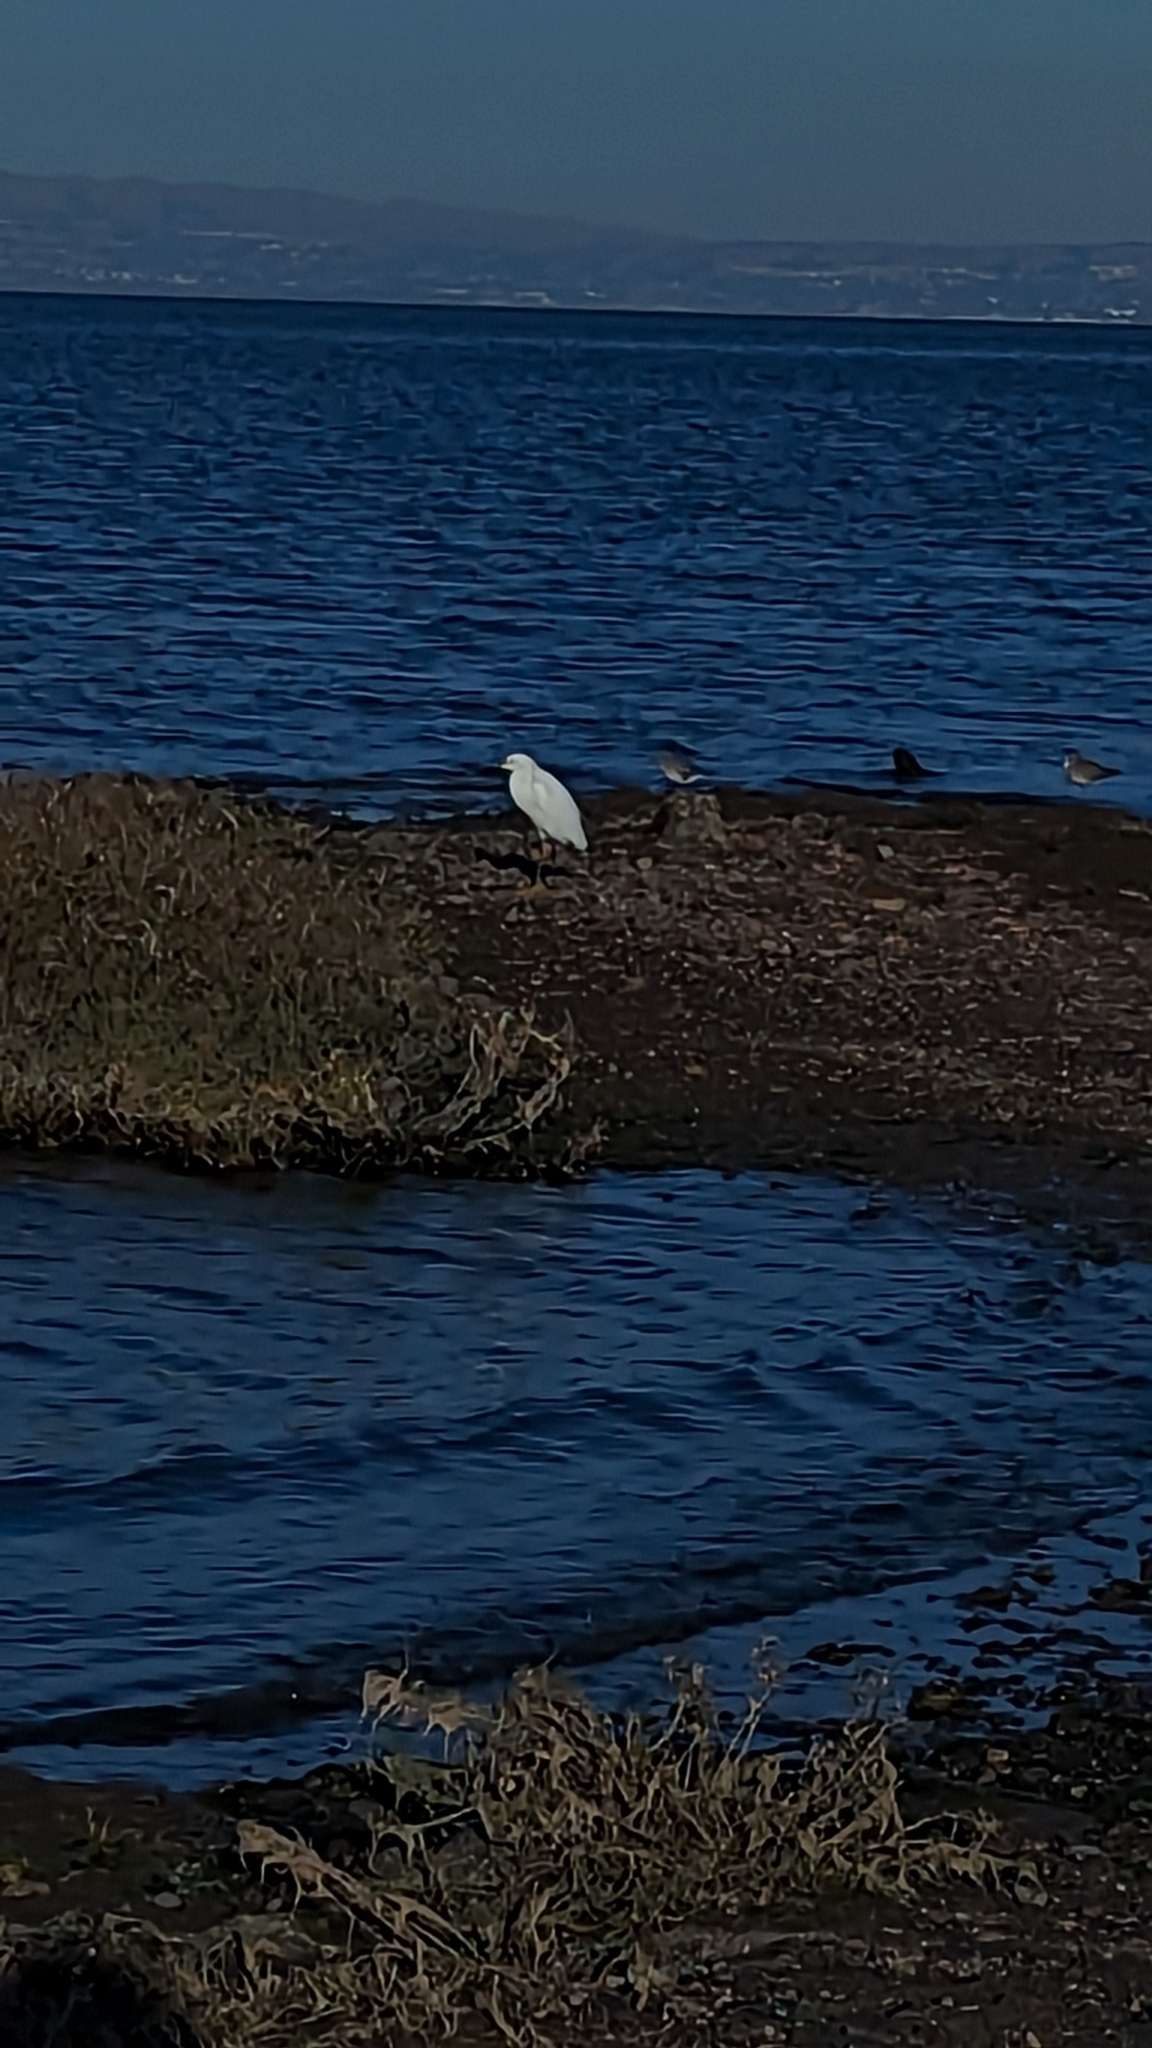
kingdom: Animalia
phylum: Chordata
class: Aves
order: Pelecaniformes
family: Ardeidae
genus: Egretta
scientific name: Egretta thula
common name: Snowy egret
